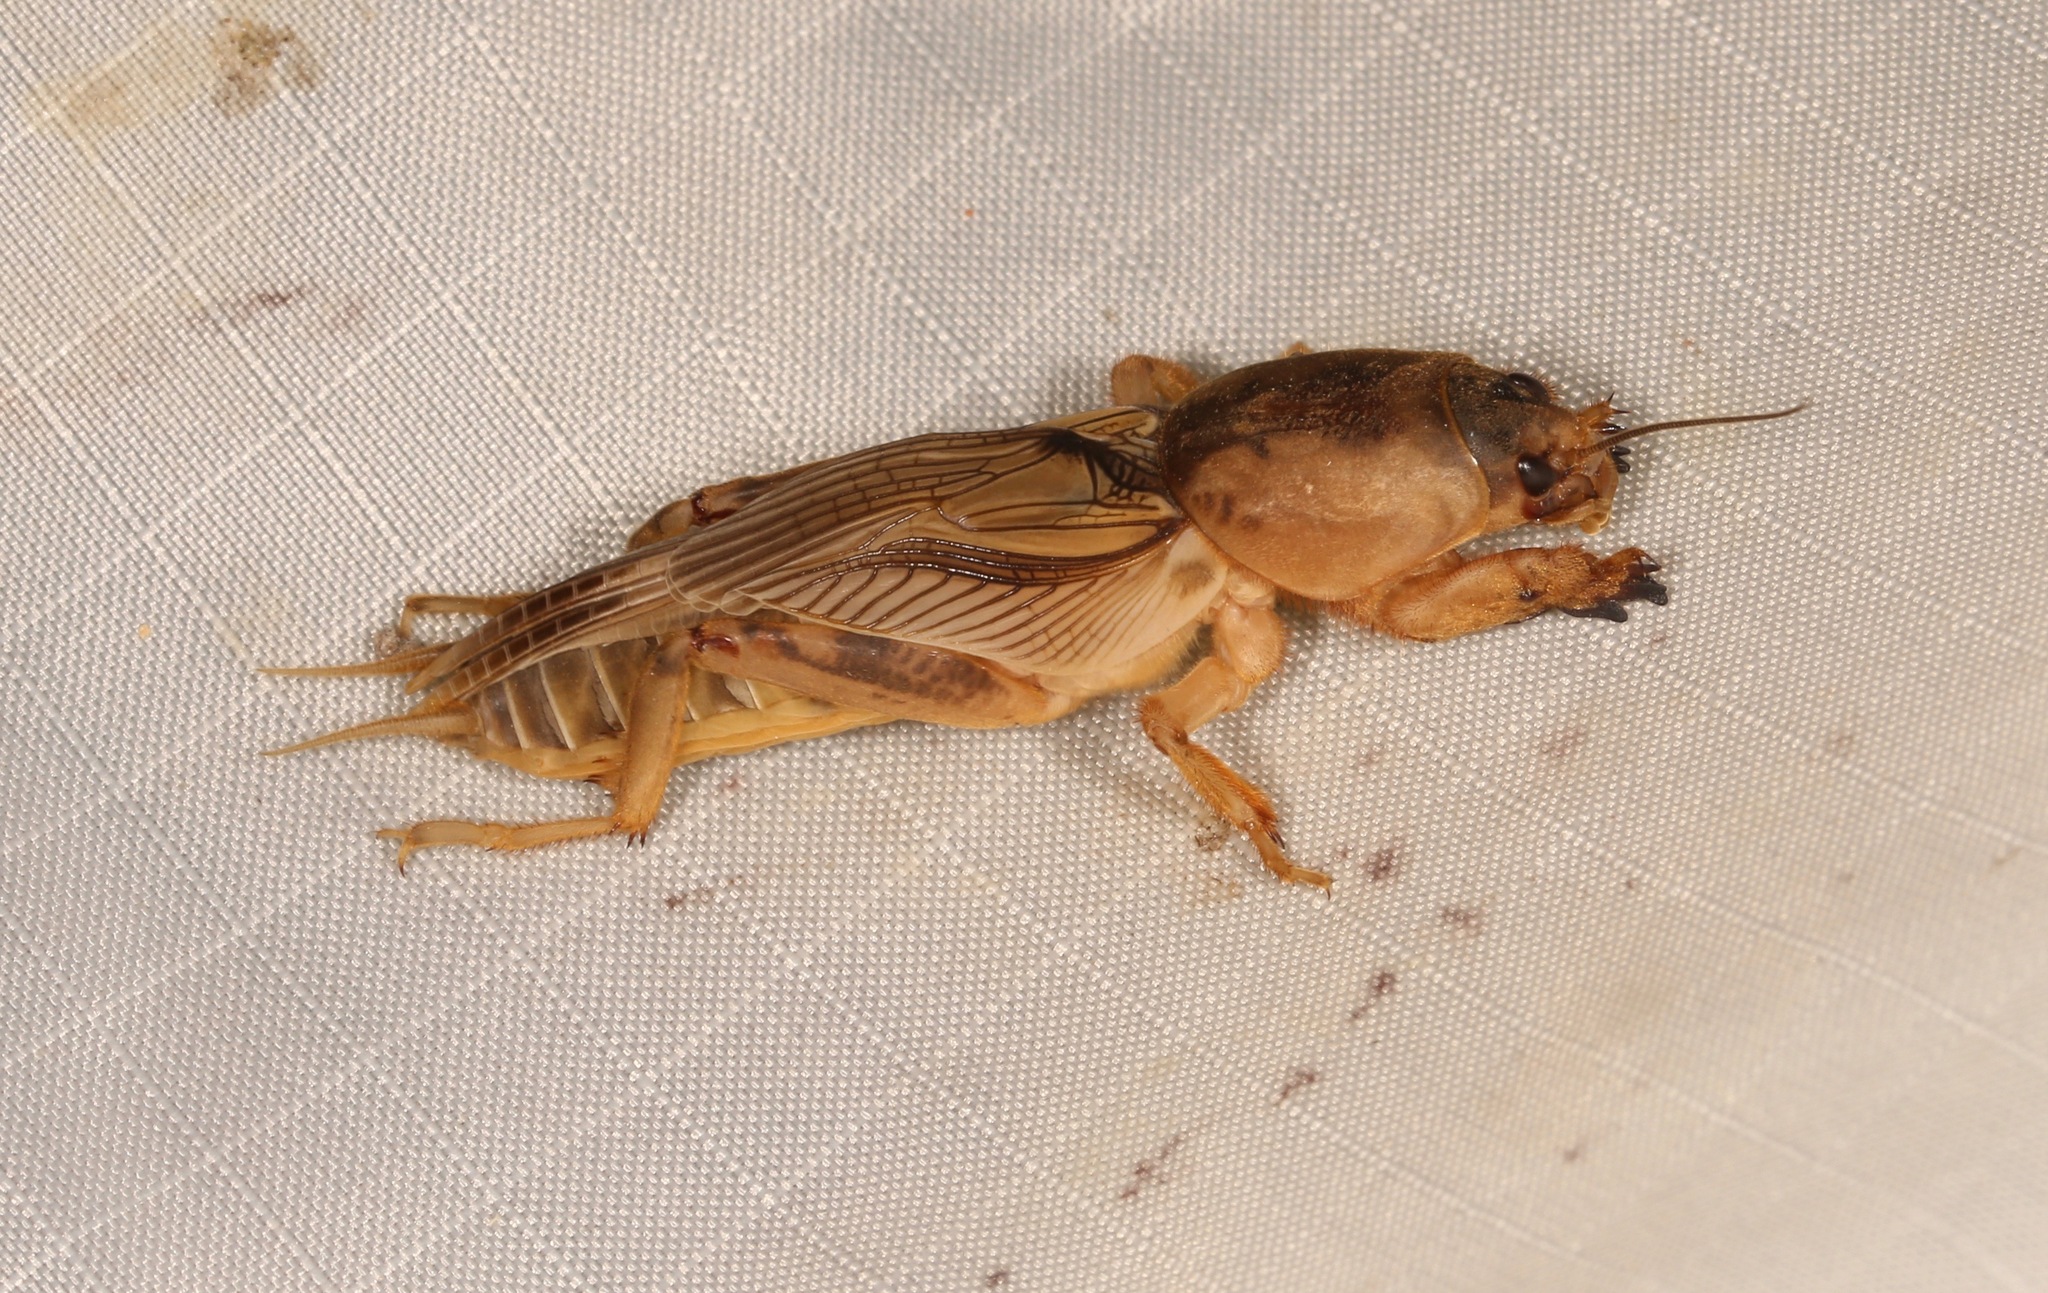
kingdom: Animalia
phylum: Arthropoda
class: Insecta
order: Orthoptera
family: Gryllotalpidae
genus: Neoscapteriscus
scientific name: Neoscapteriscus vicinus
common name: Tawny mole cricket
